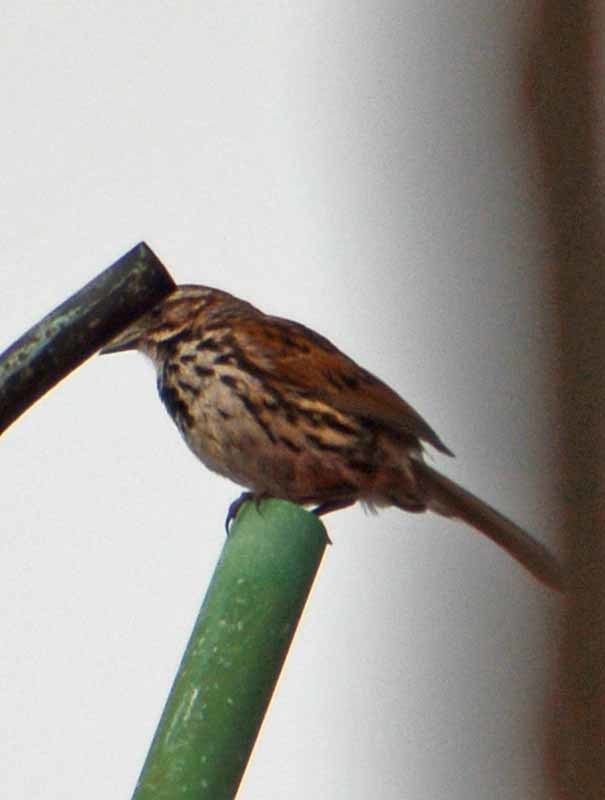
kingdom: Animalia
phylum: Chordata
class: Aves
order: Passeriformes
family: Passerellidae
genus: Melospiza
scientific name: Melospiza melodia
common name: Song sparrow
